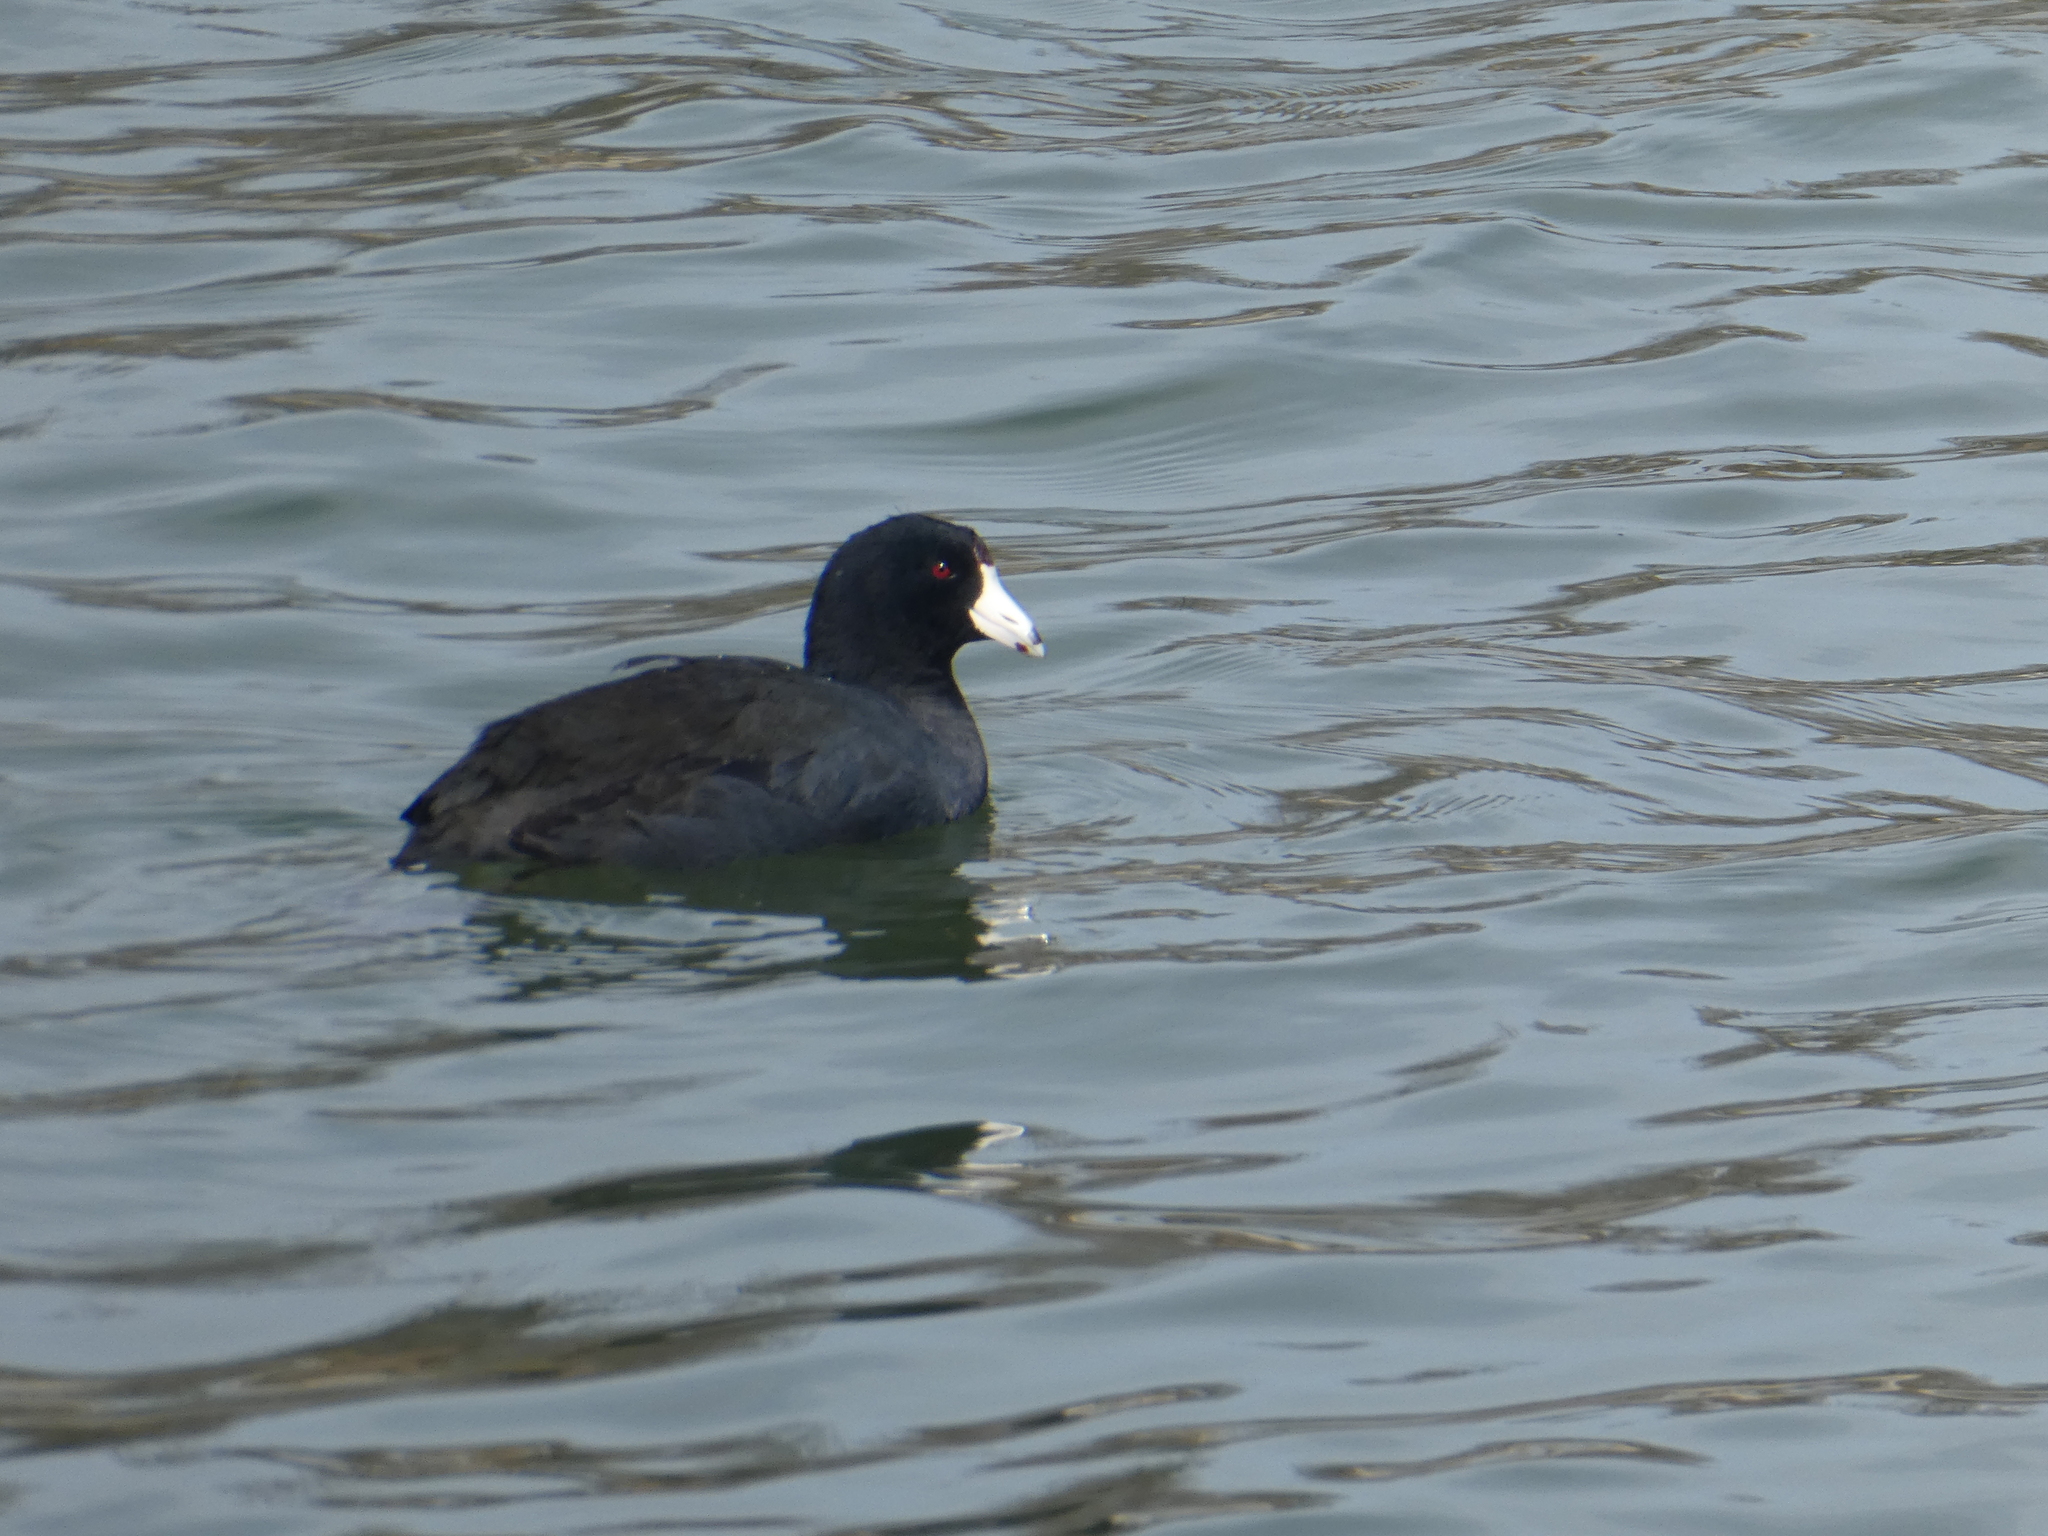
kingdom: Animalia
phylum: Chordata
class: Aves
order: Gruiformes
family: Rallidae
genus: Fulica
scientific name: Fulica americana
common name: American coot
